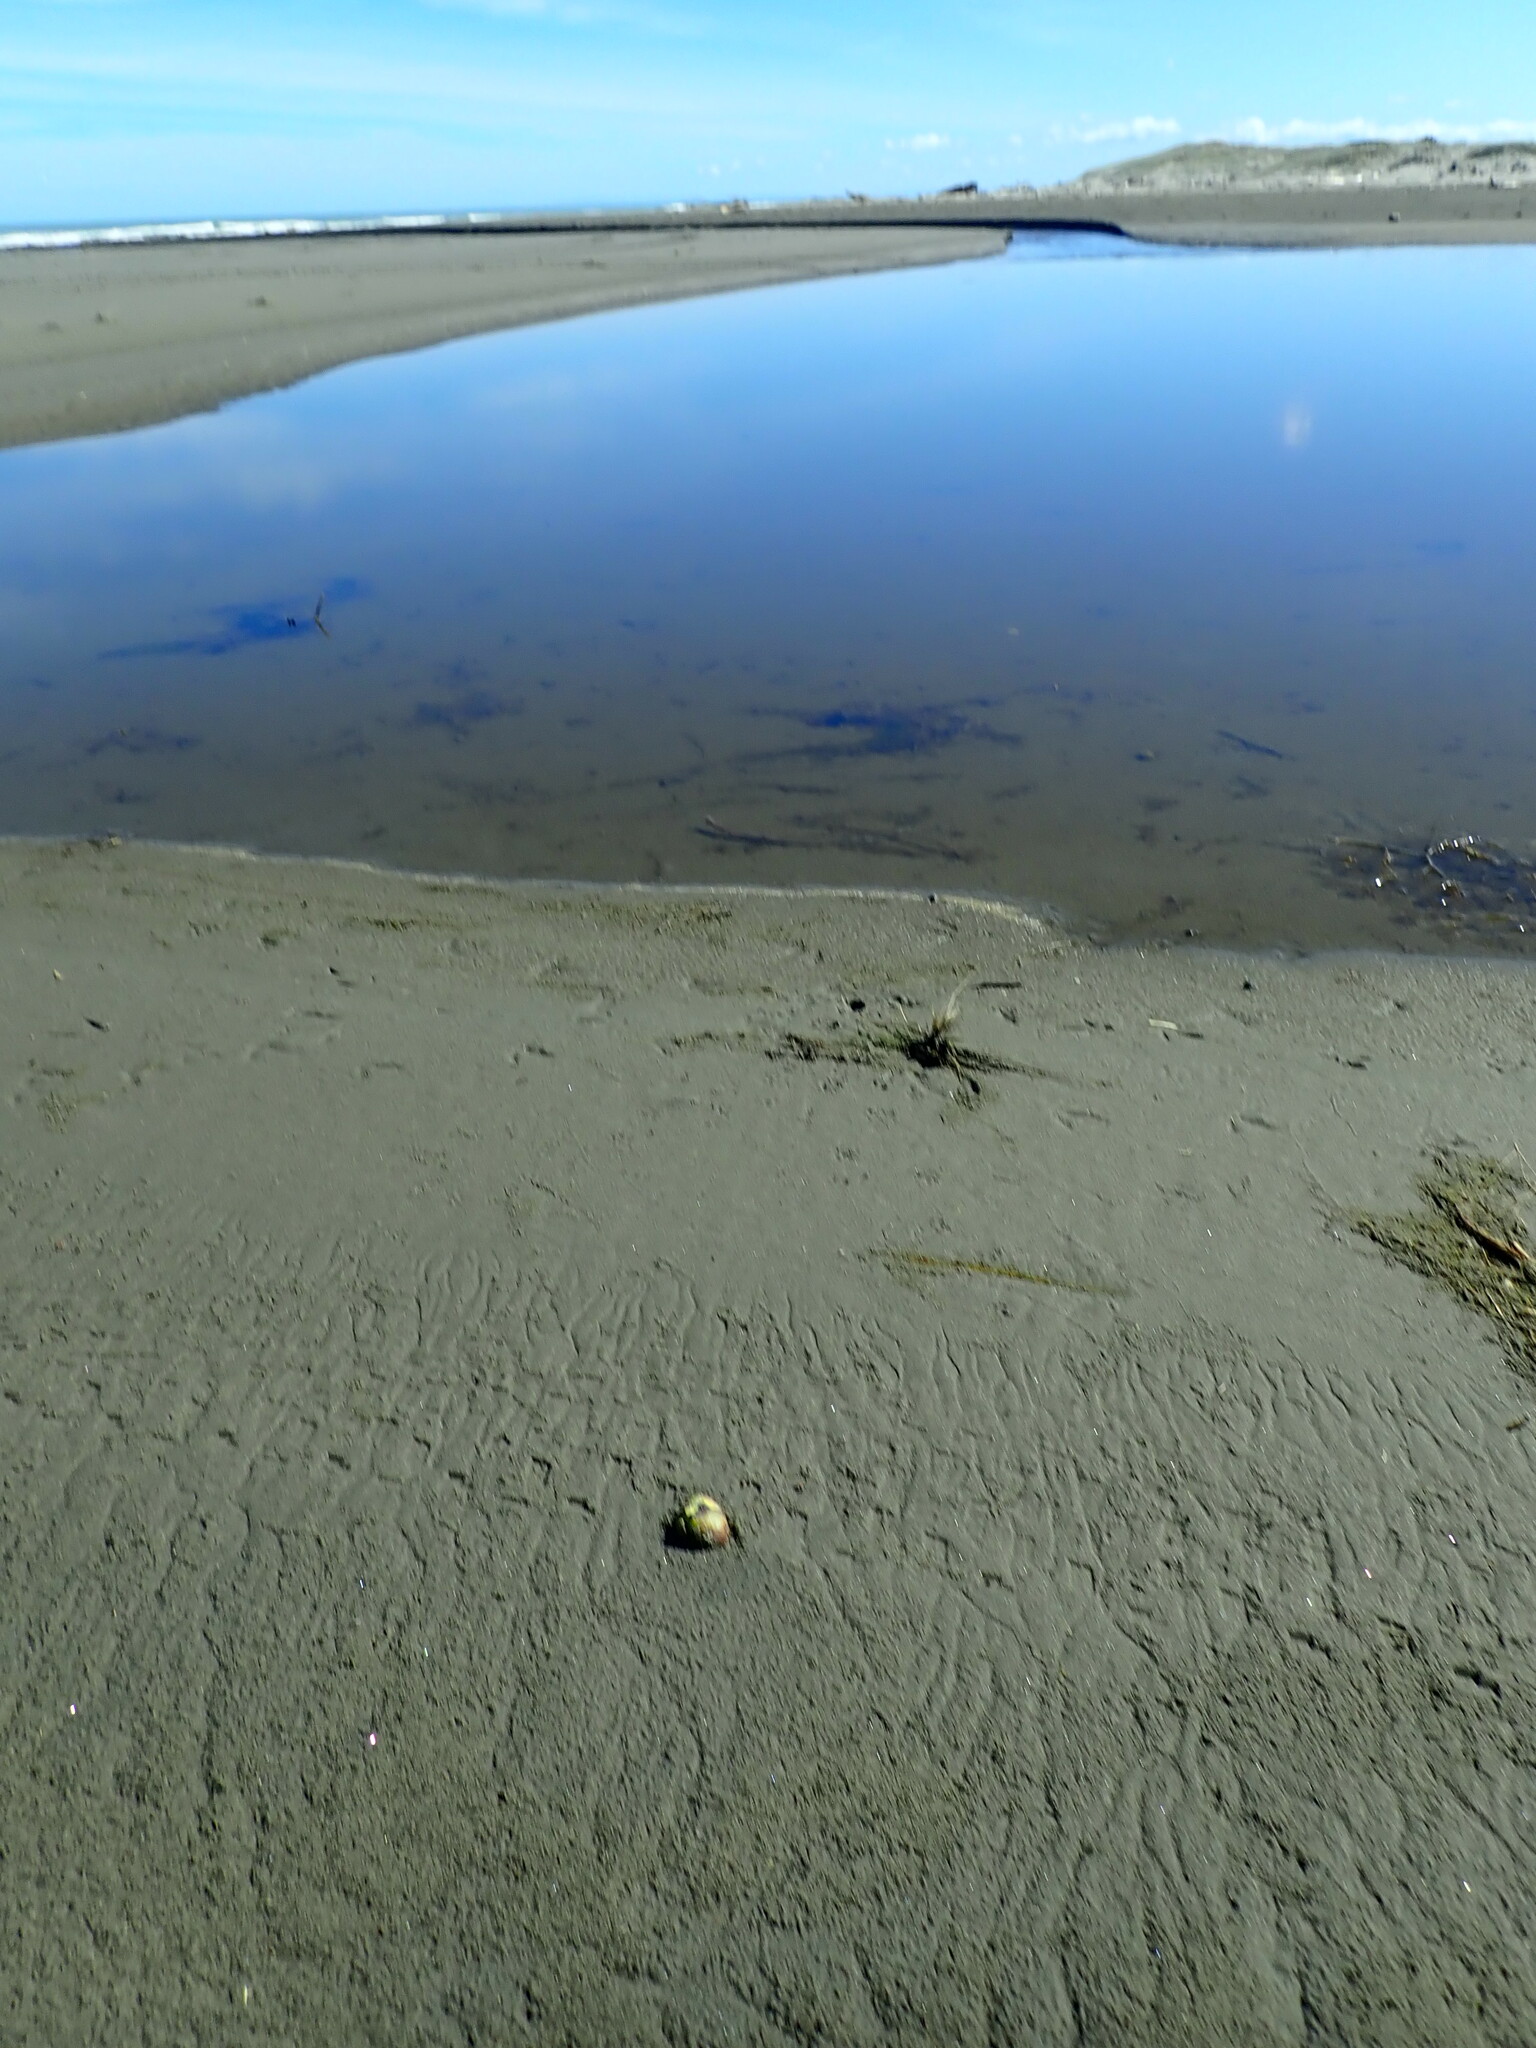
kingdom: Plantae
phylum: Tracheophyta
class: Magnoliopsida
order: Lamiales
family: Acanthaceae
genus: Avicennia
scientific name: Avicennia marina
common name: Gray mangrove
